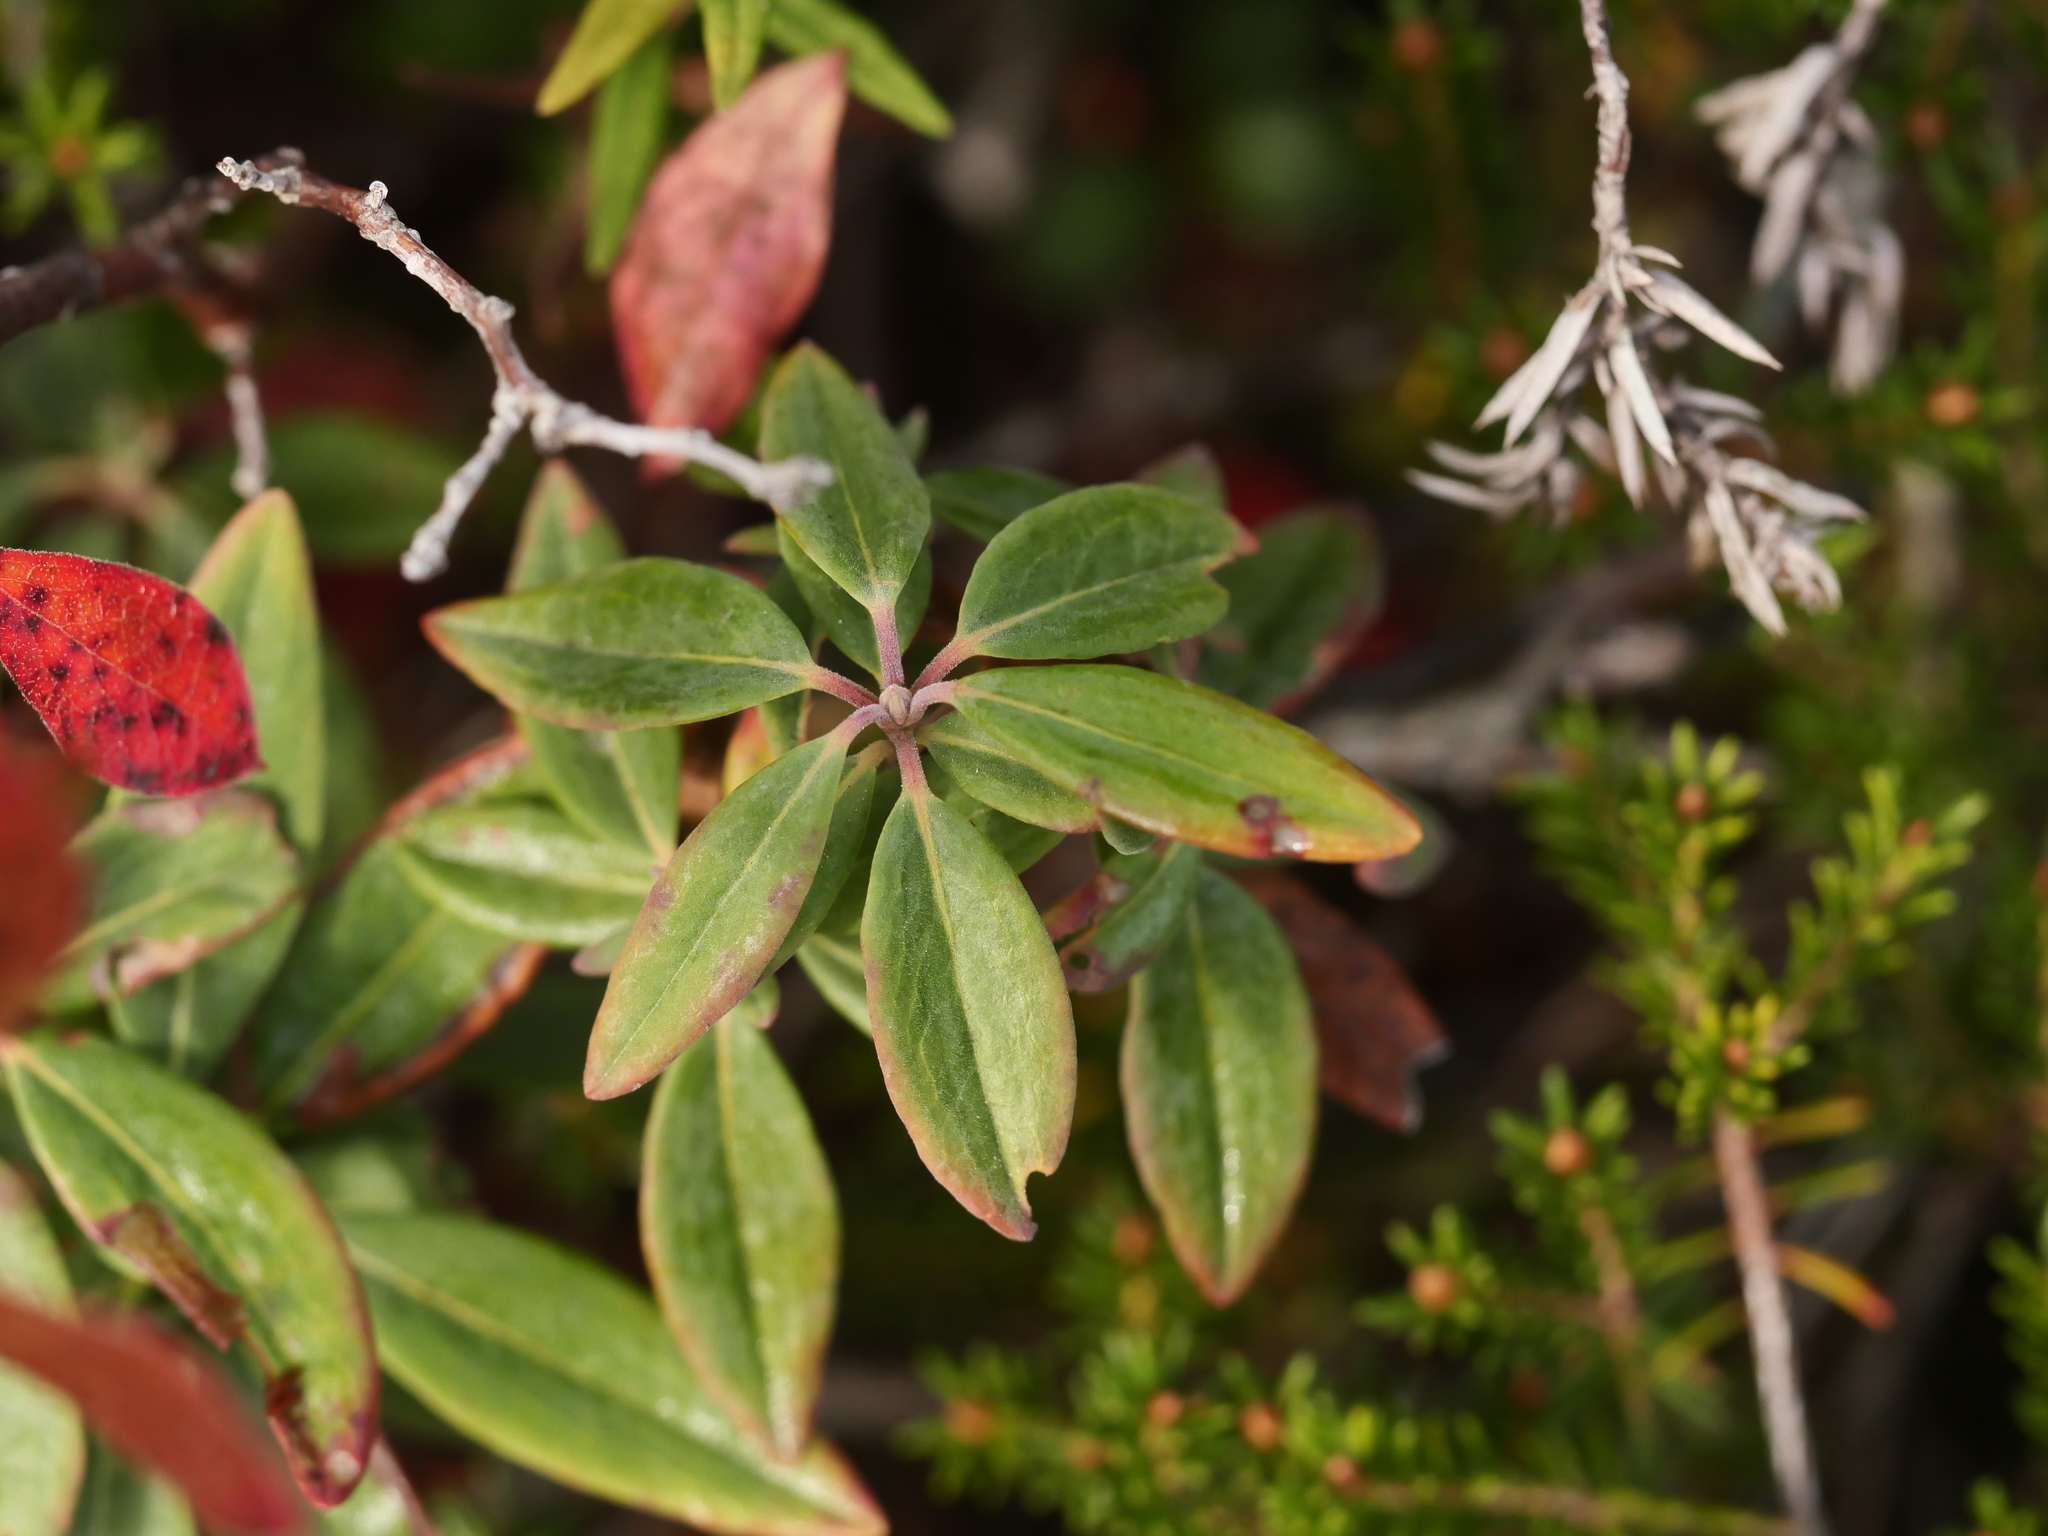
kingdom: Plantae
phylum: Tracheophyta
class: Magnoliopsida
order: Ericales
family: Ericaceae
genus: Kalmia
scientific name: Kalmia angustifolia
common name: Sheep-laurel
